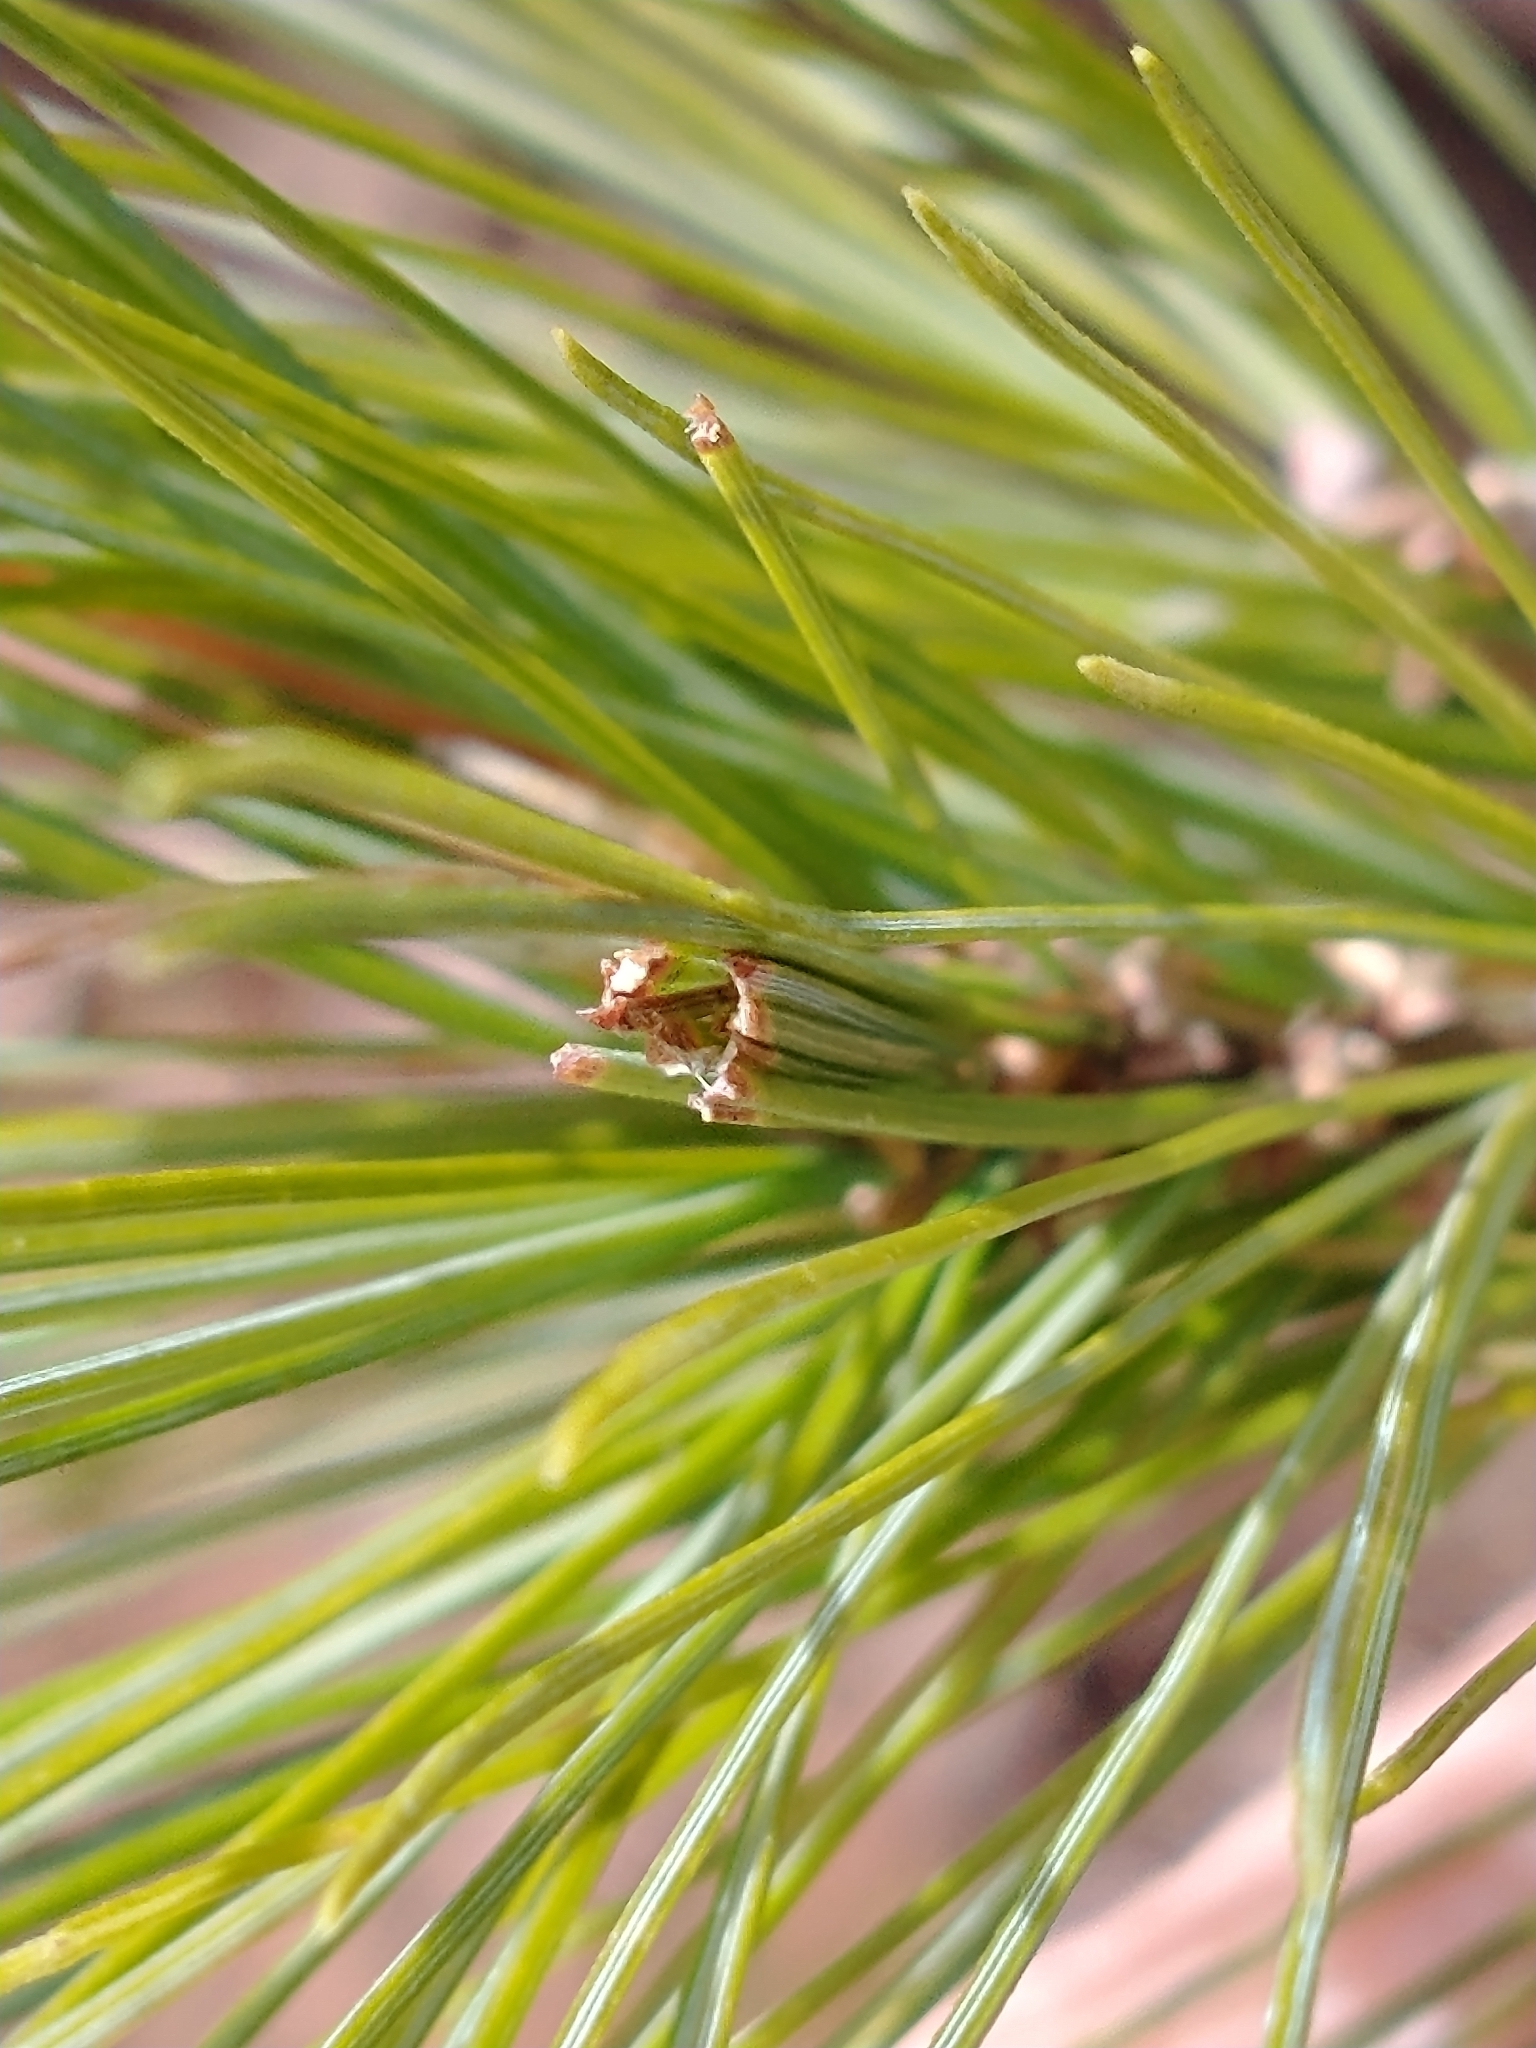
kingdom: Animalia
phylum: Arthropoda
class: Insecta
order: Lepidoptera
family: Tortricidae
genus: Argyrotaenia
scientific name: Argyrotaenia pinatubana
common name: Pine tube moth
